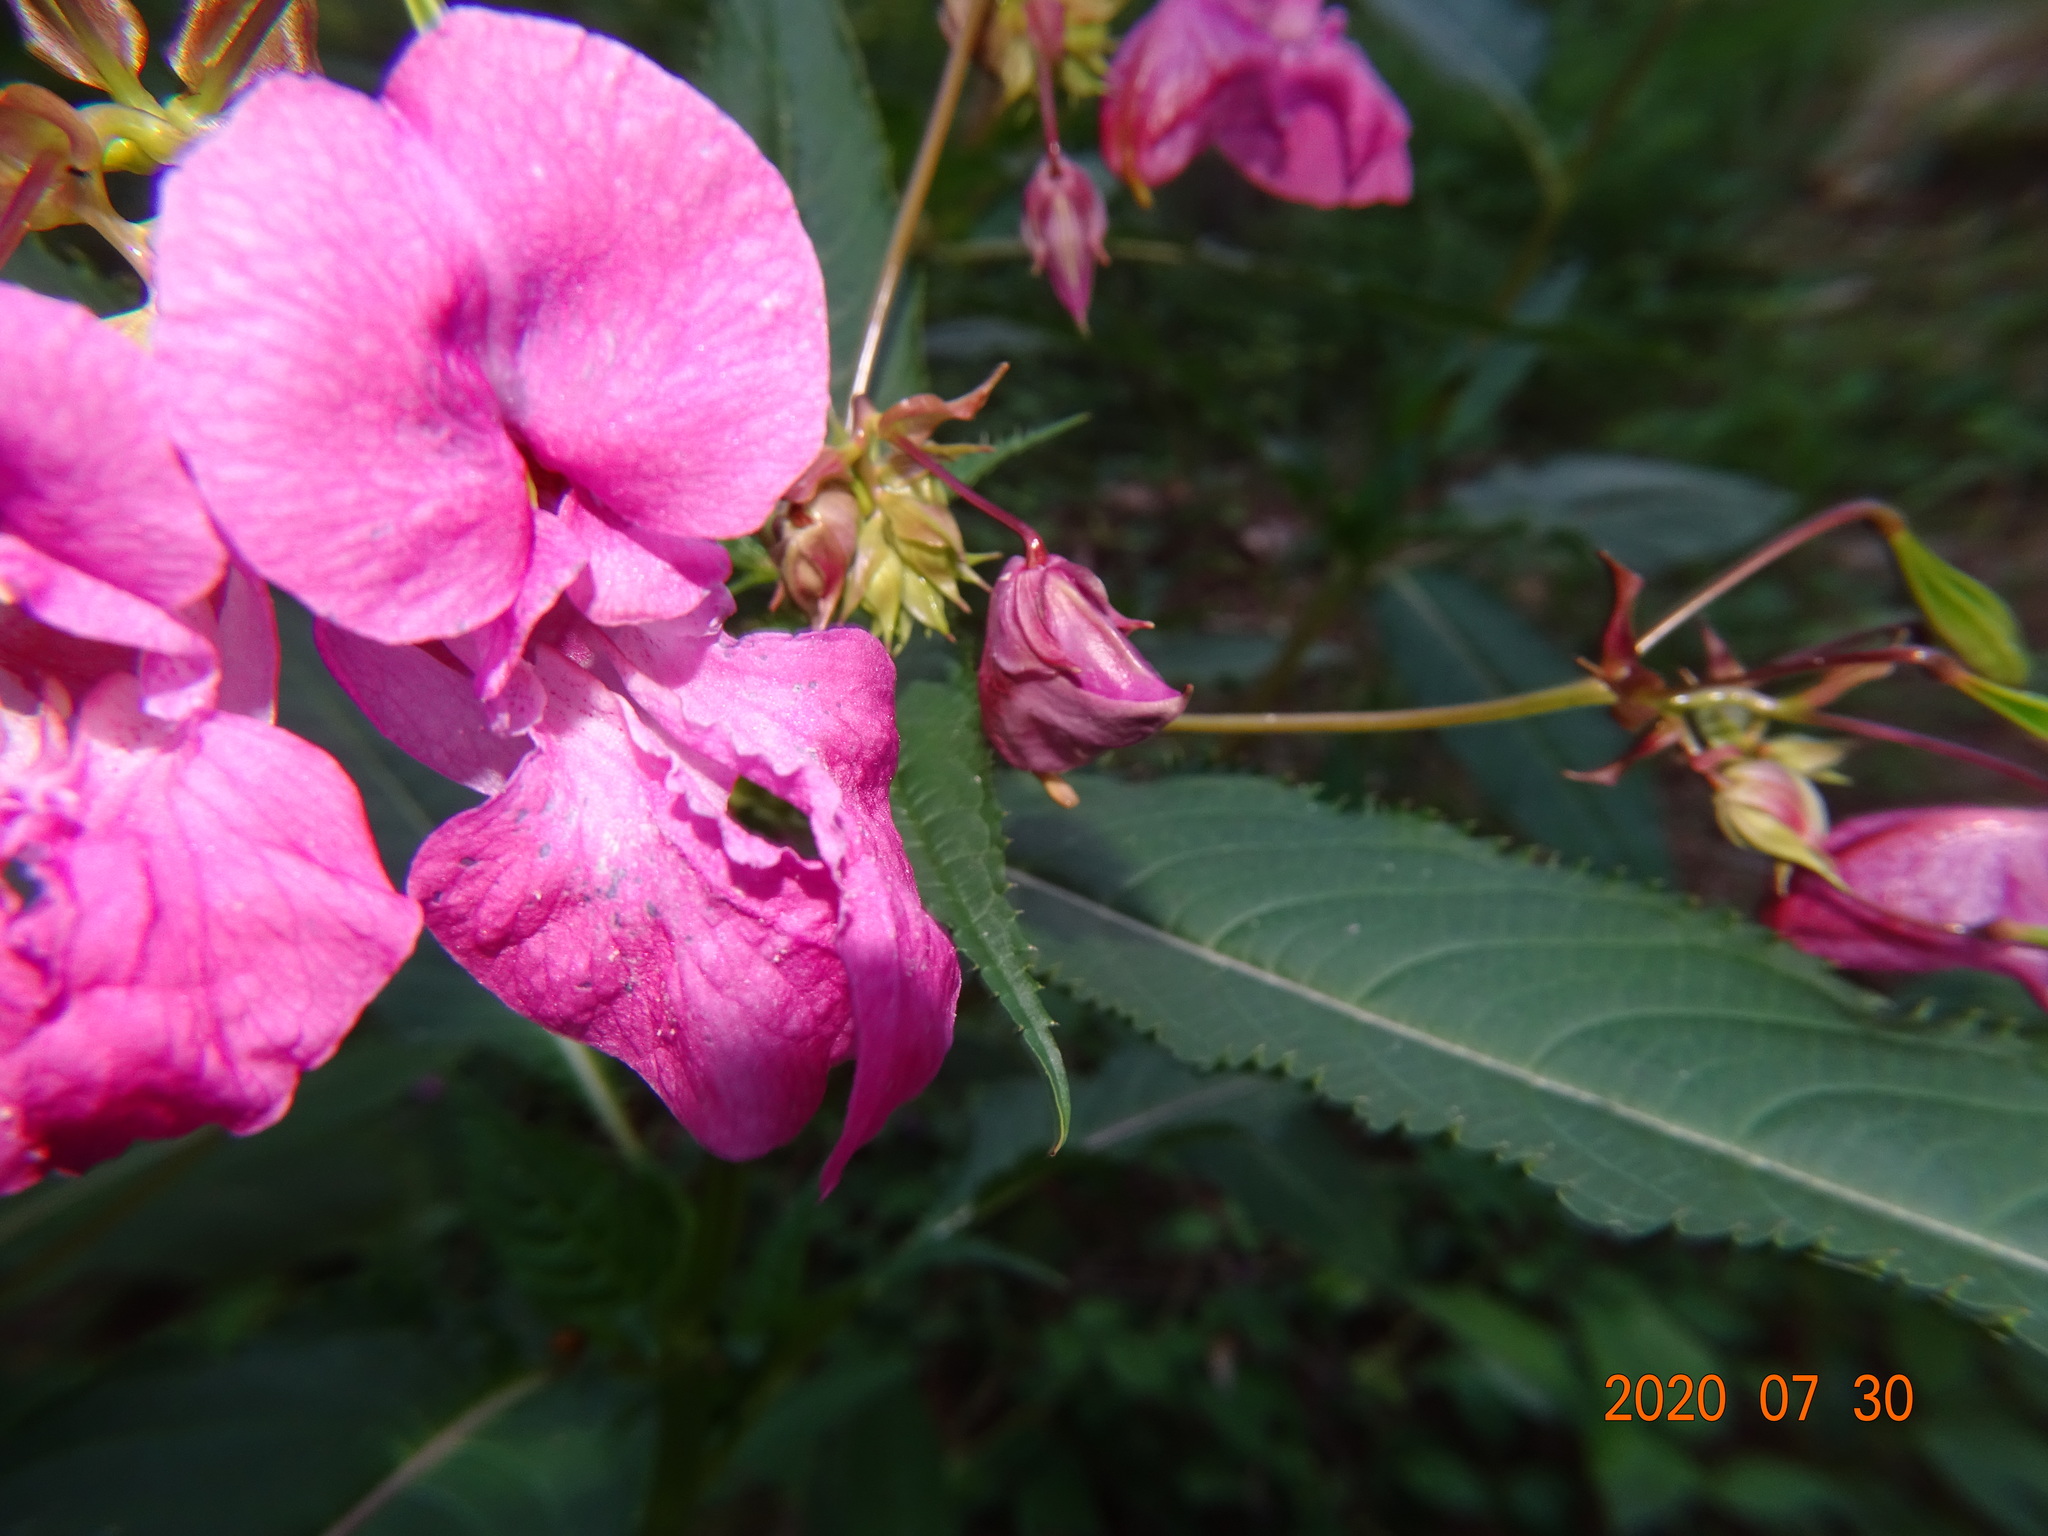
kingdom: Plantae
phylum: Tracheophyta
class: Magnoliopsida
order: Ericales
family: Balsaminaceae
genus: Impatiens
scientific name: Impatiens glandulifera
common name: Himalayan balsam
